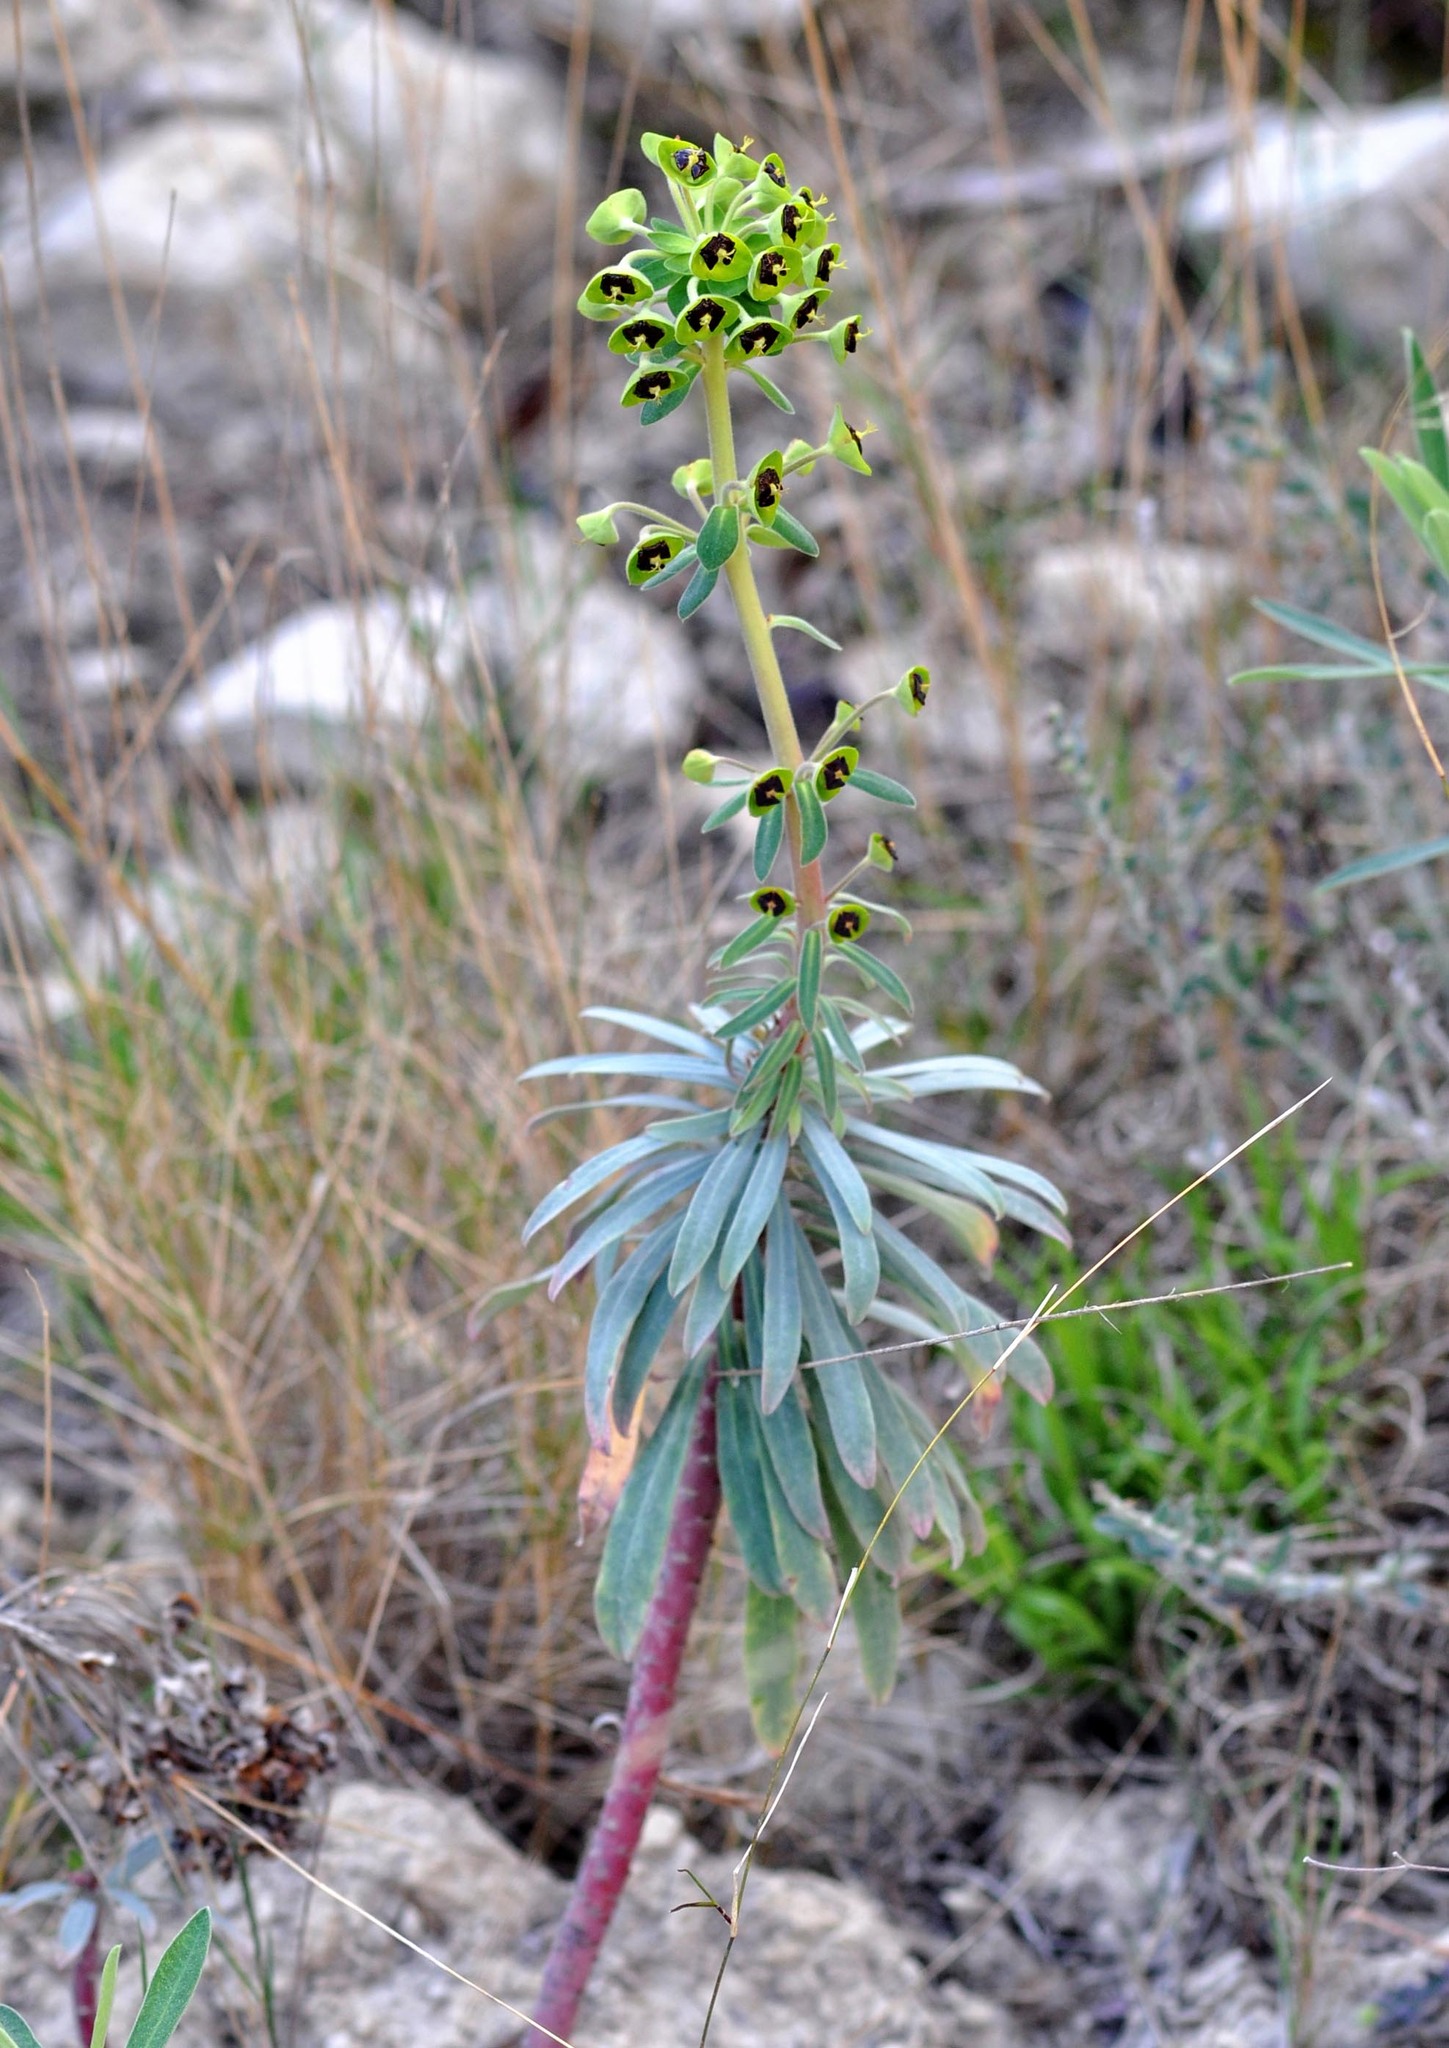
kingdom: Plantae
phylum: Tracheophyta
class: Magnoliopsida
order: Malpighiales
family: Euphorbiaceae
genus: Euphorbia
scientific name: Euphorbia characias
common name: Mediterranean spurge
